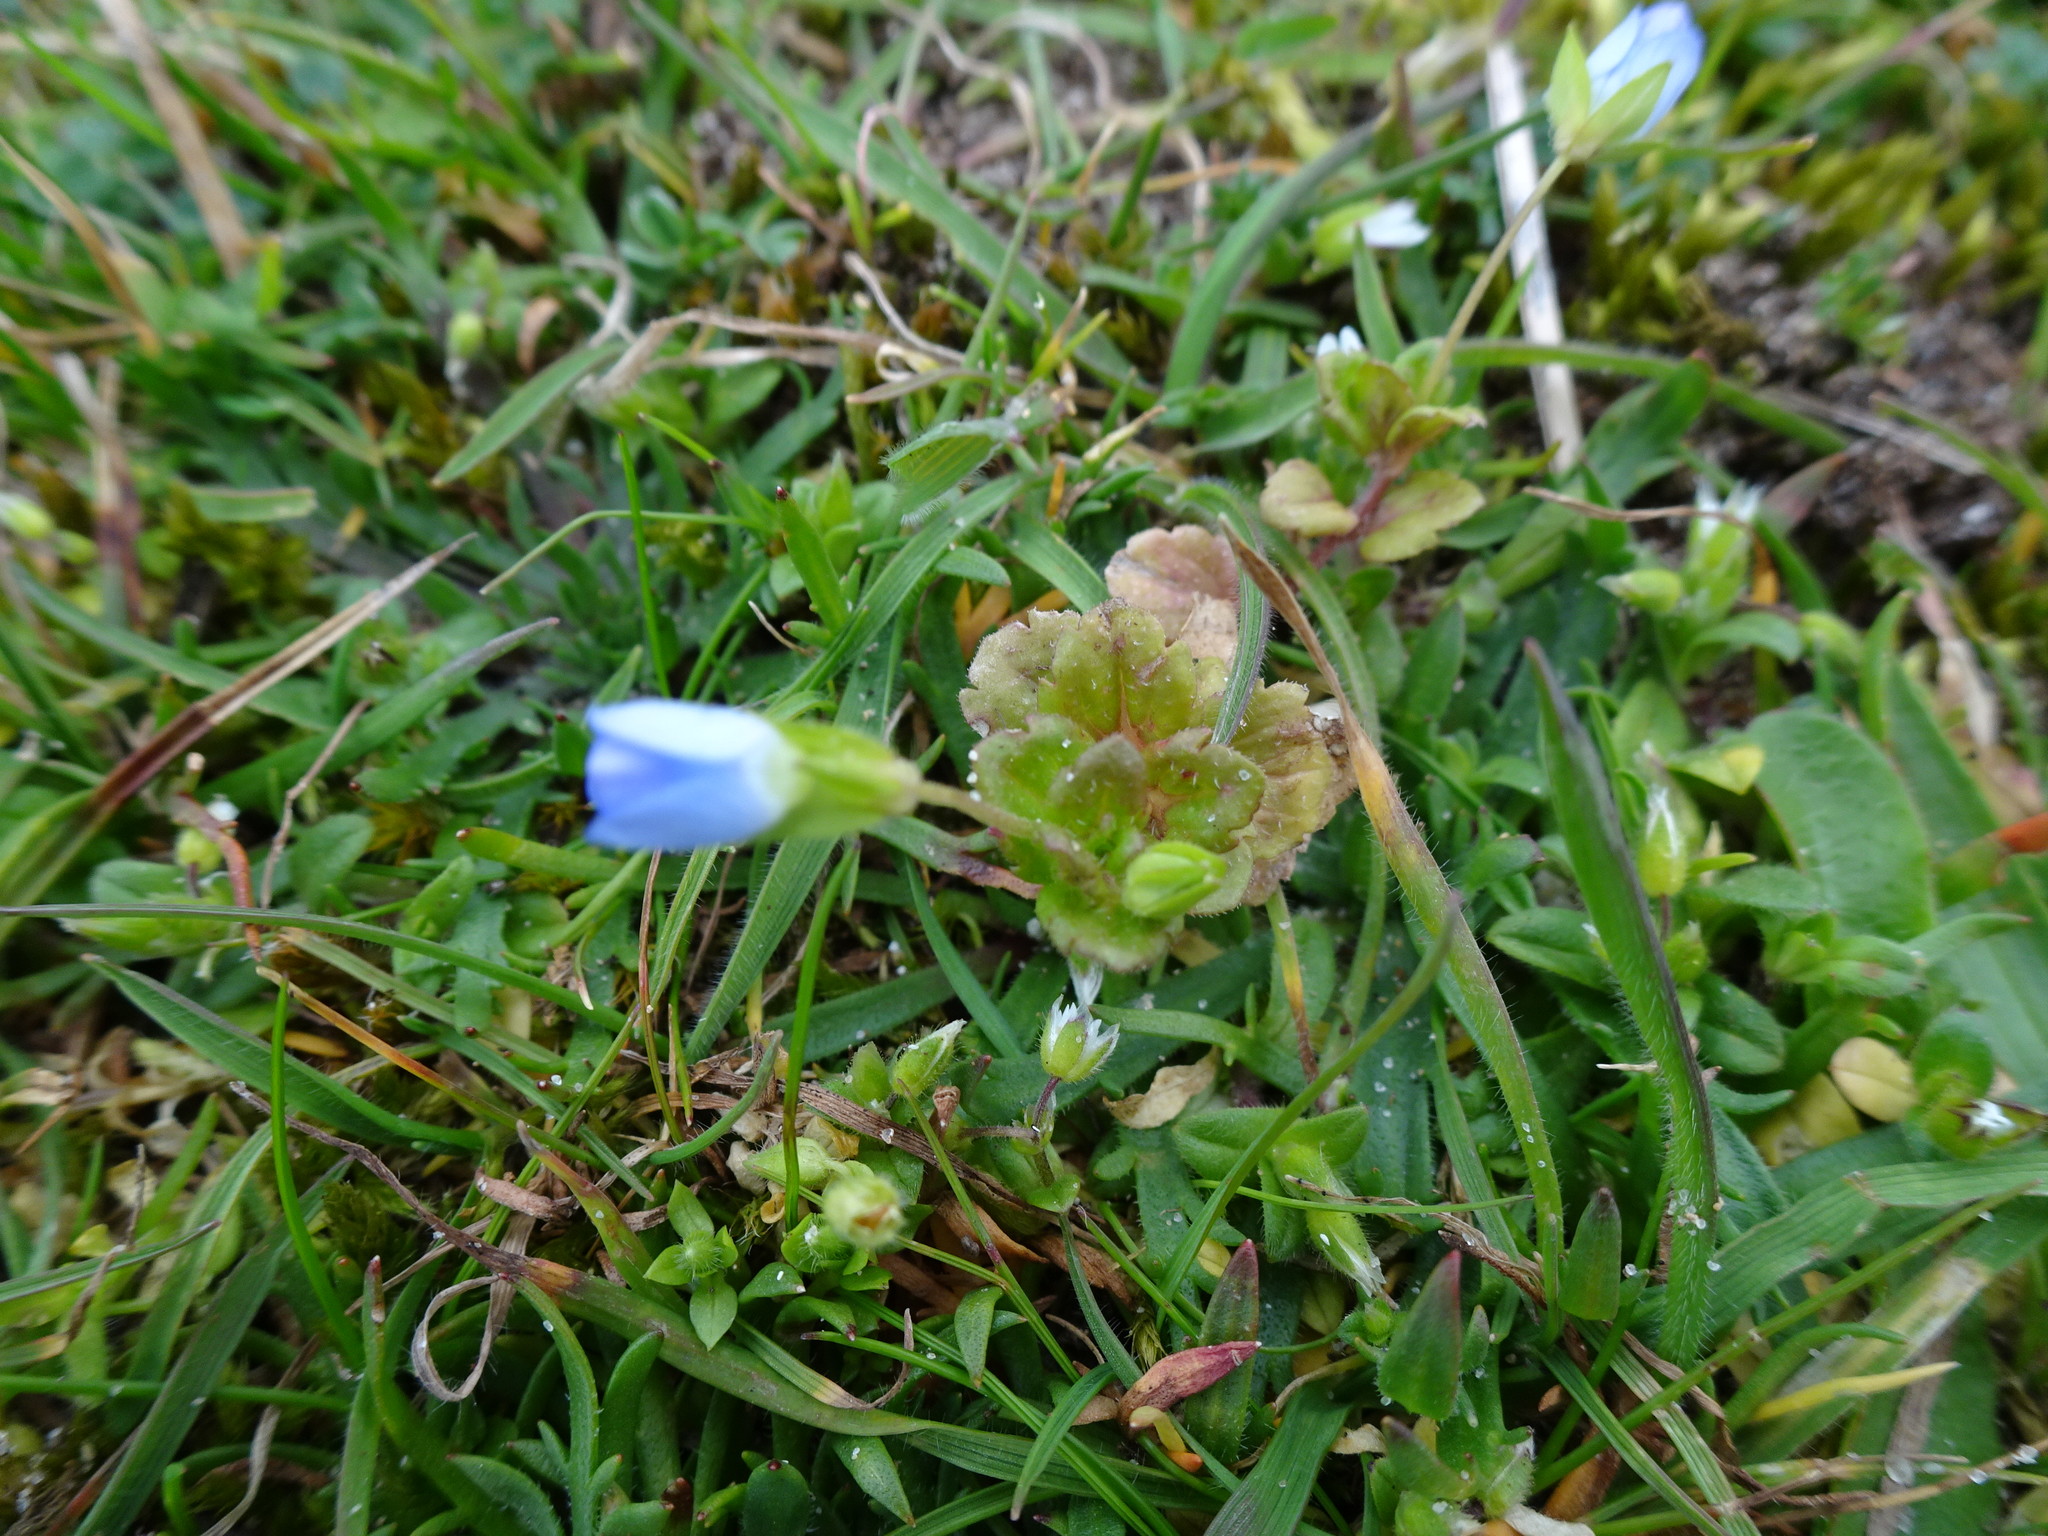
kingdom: Plantae
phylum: Tracheophyta
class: Magnoliopsida
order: Lamiales
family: Plantaginaceae
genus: Veronica
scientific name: Veronica persica
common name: Common field-speedwell
